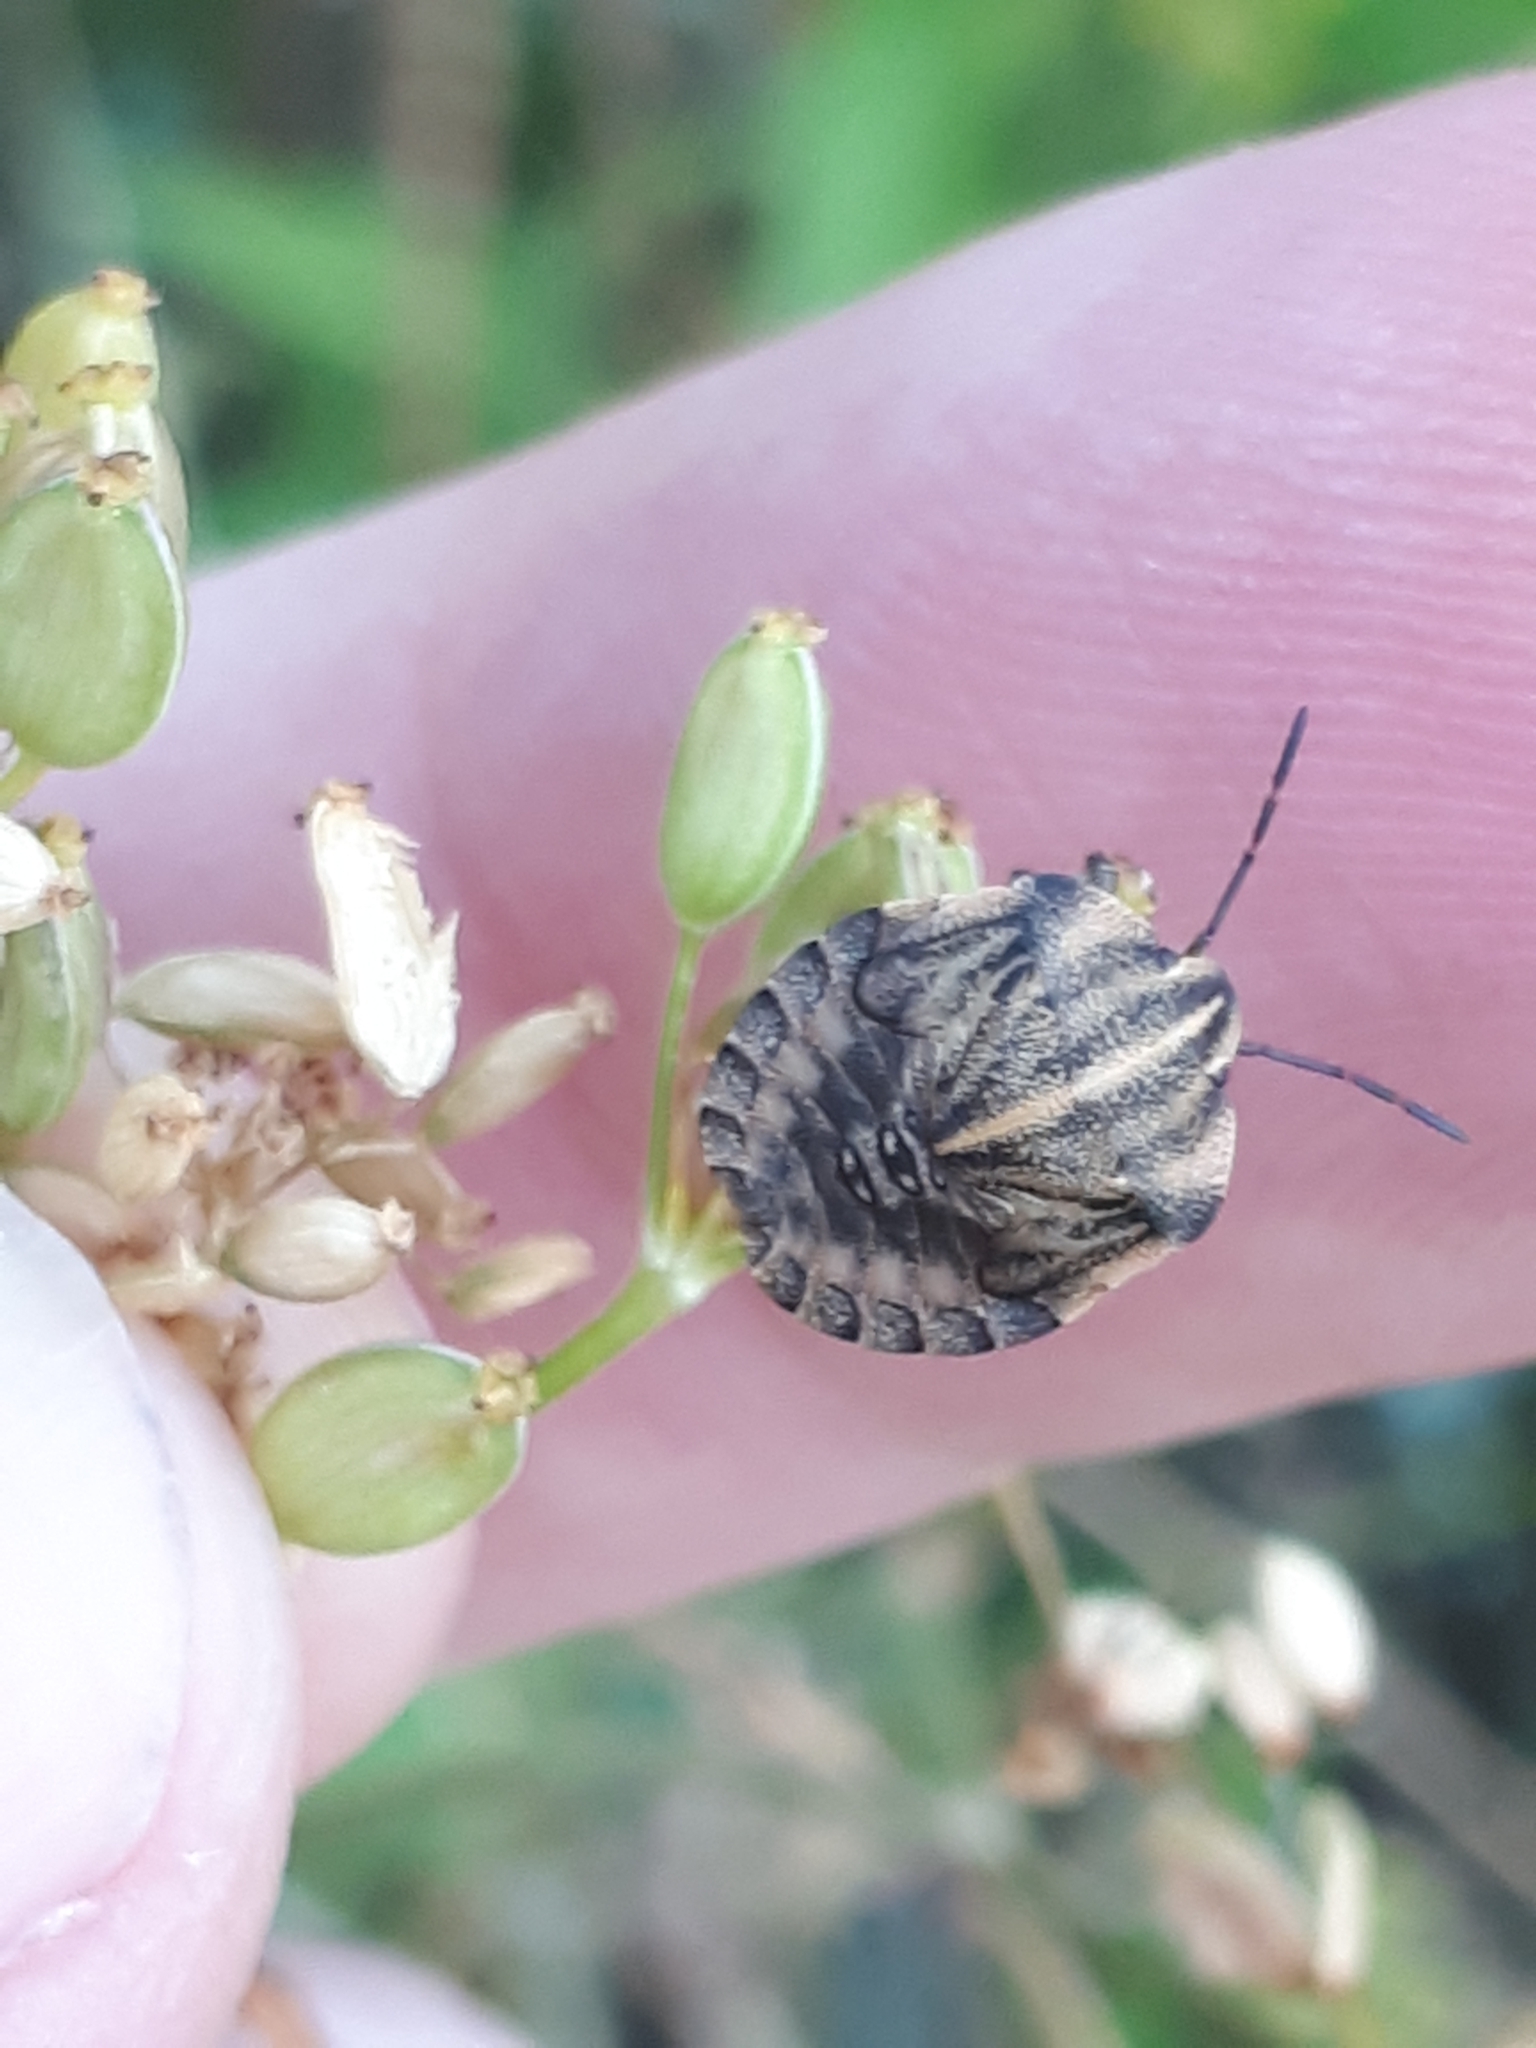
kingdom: Animalia
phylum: Arthropoda
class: Insecta
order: Hemiptera
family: Pentatomidae
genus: Graphosoma
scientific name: Graphosoma italicum
